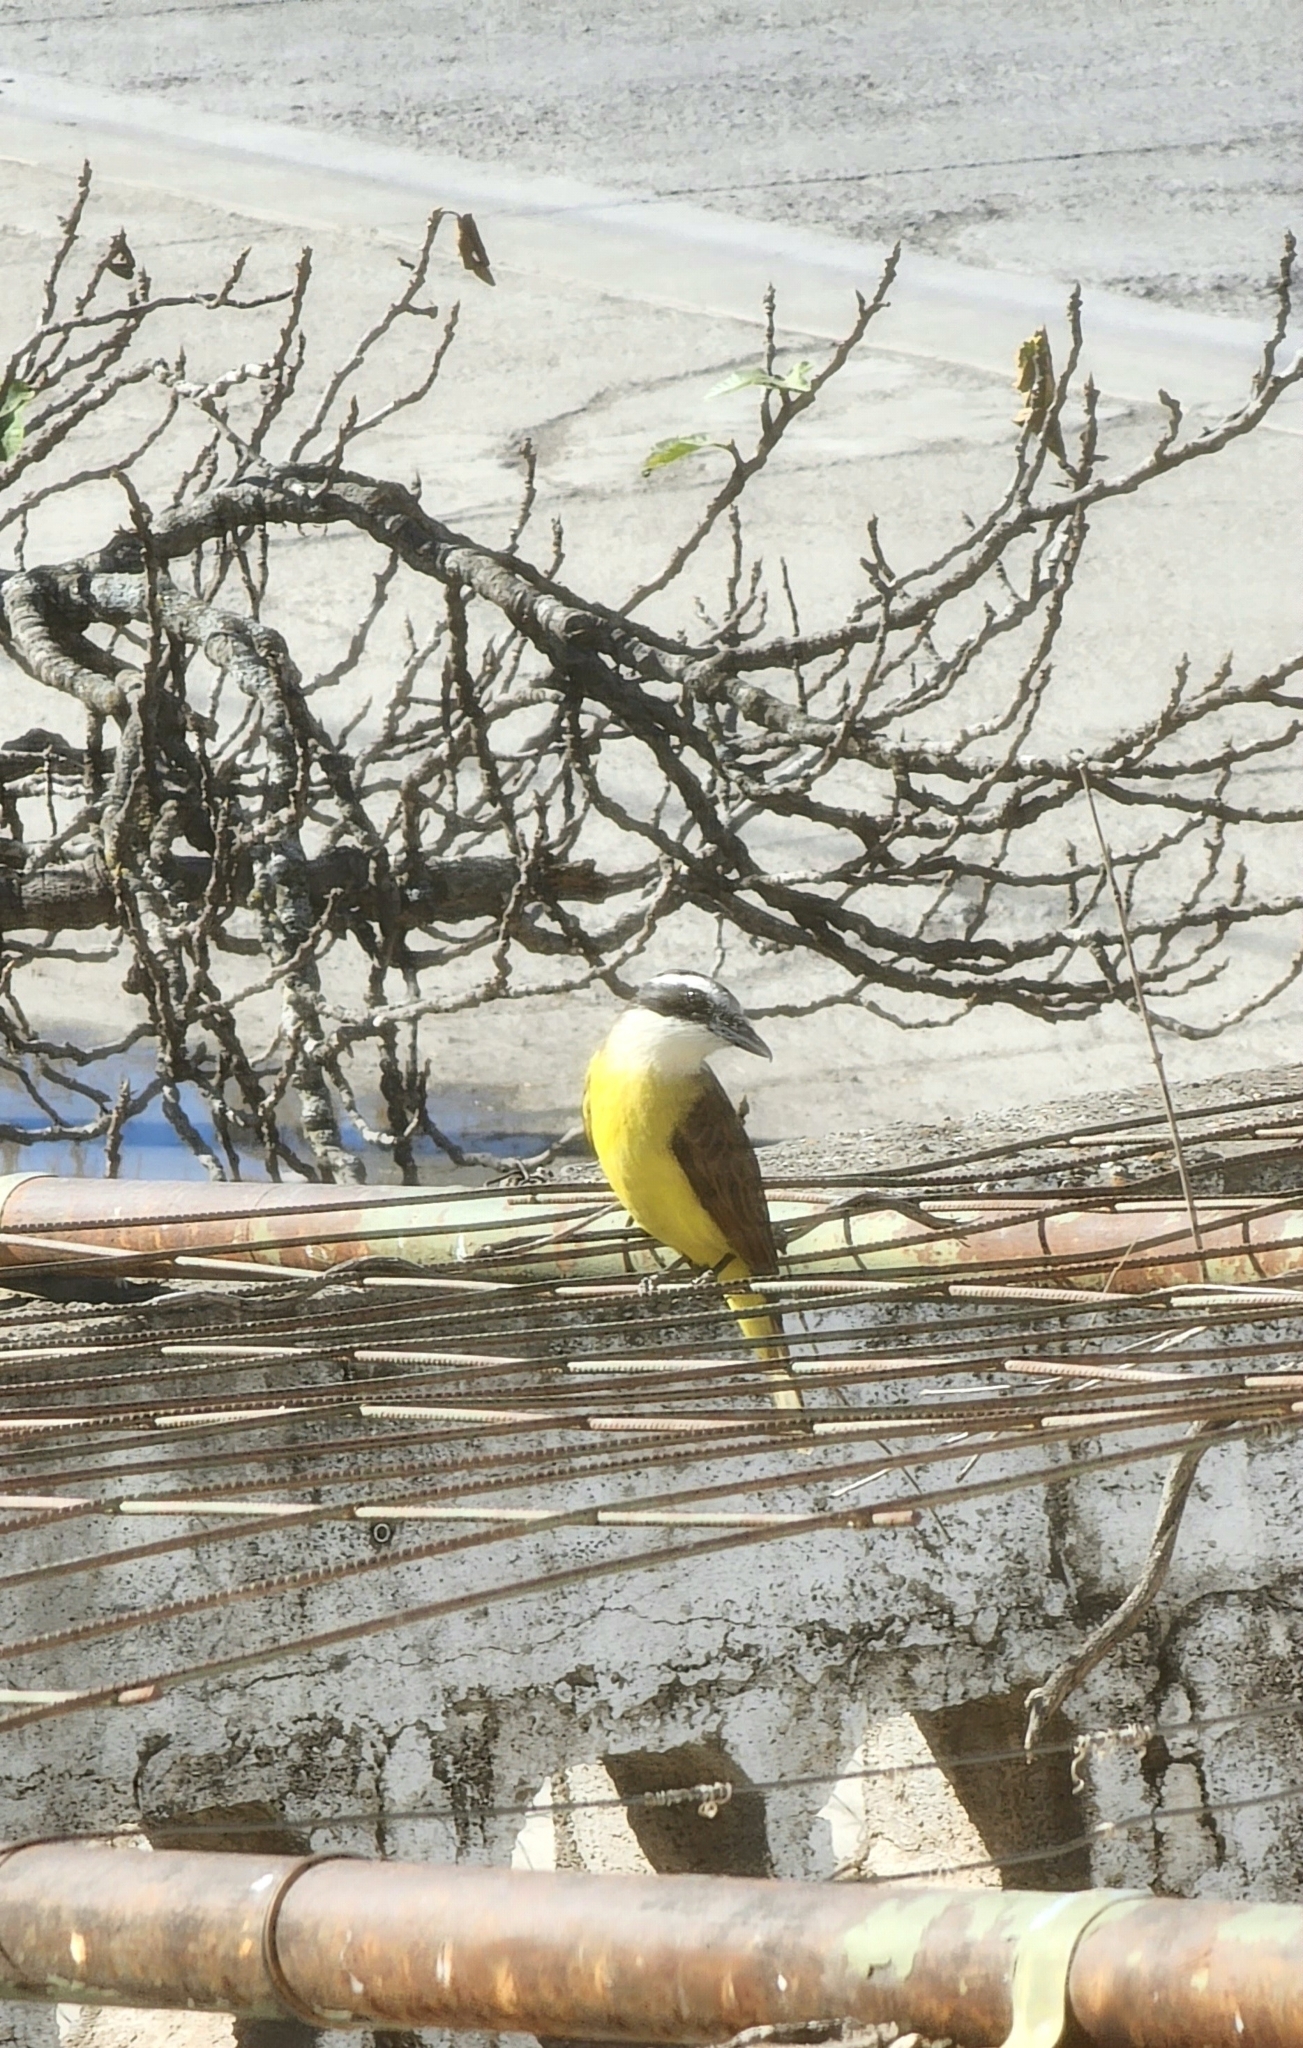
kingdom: Animalia
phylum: Chordata
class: Aves
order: Passeriformes
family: Tyrannidae
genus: Pitangus
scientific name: Pitangus sulphuratus
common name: Great kiskadee
